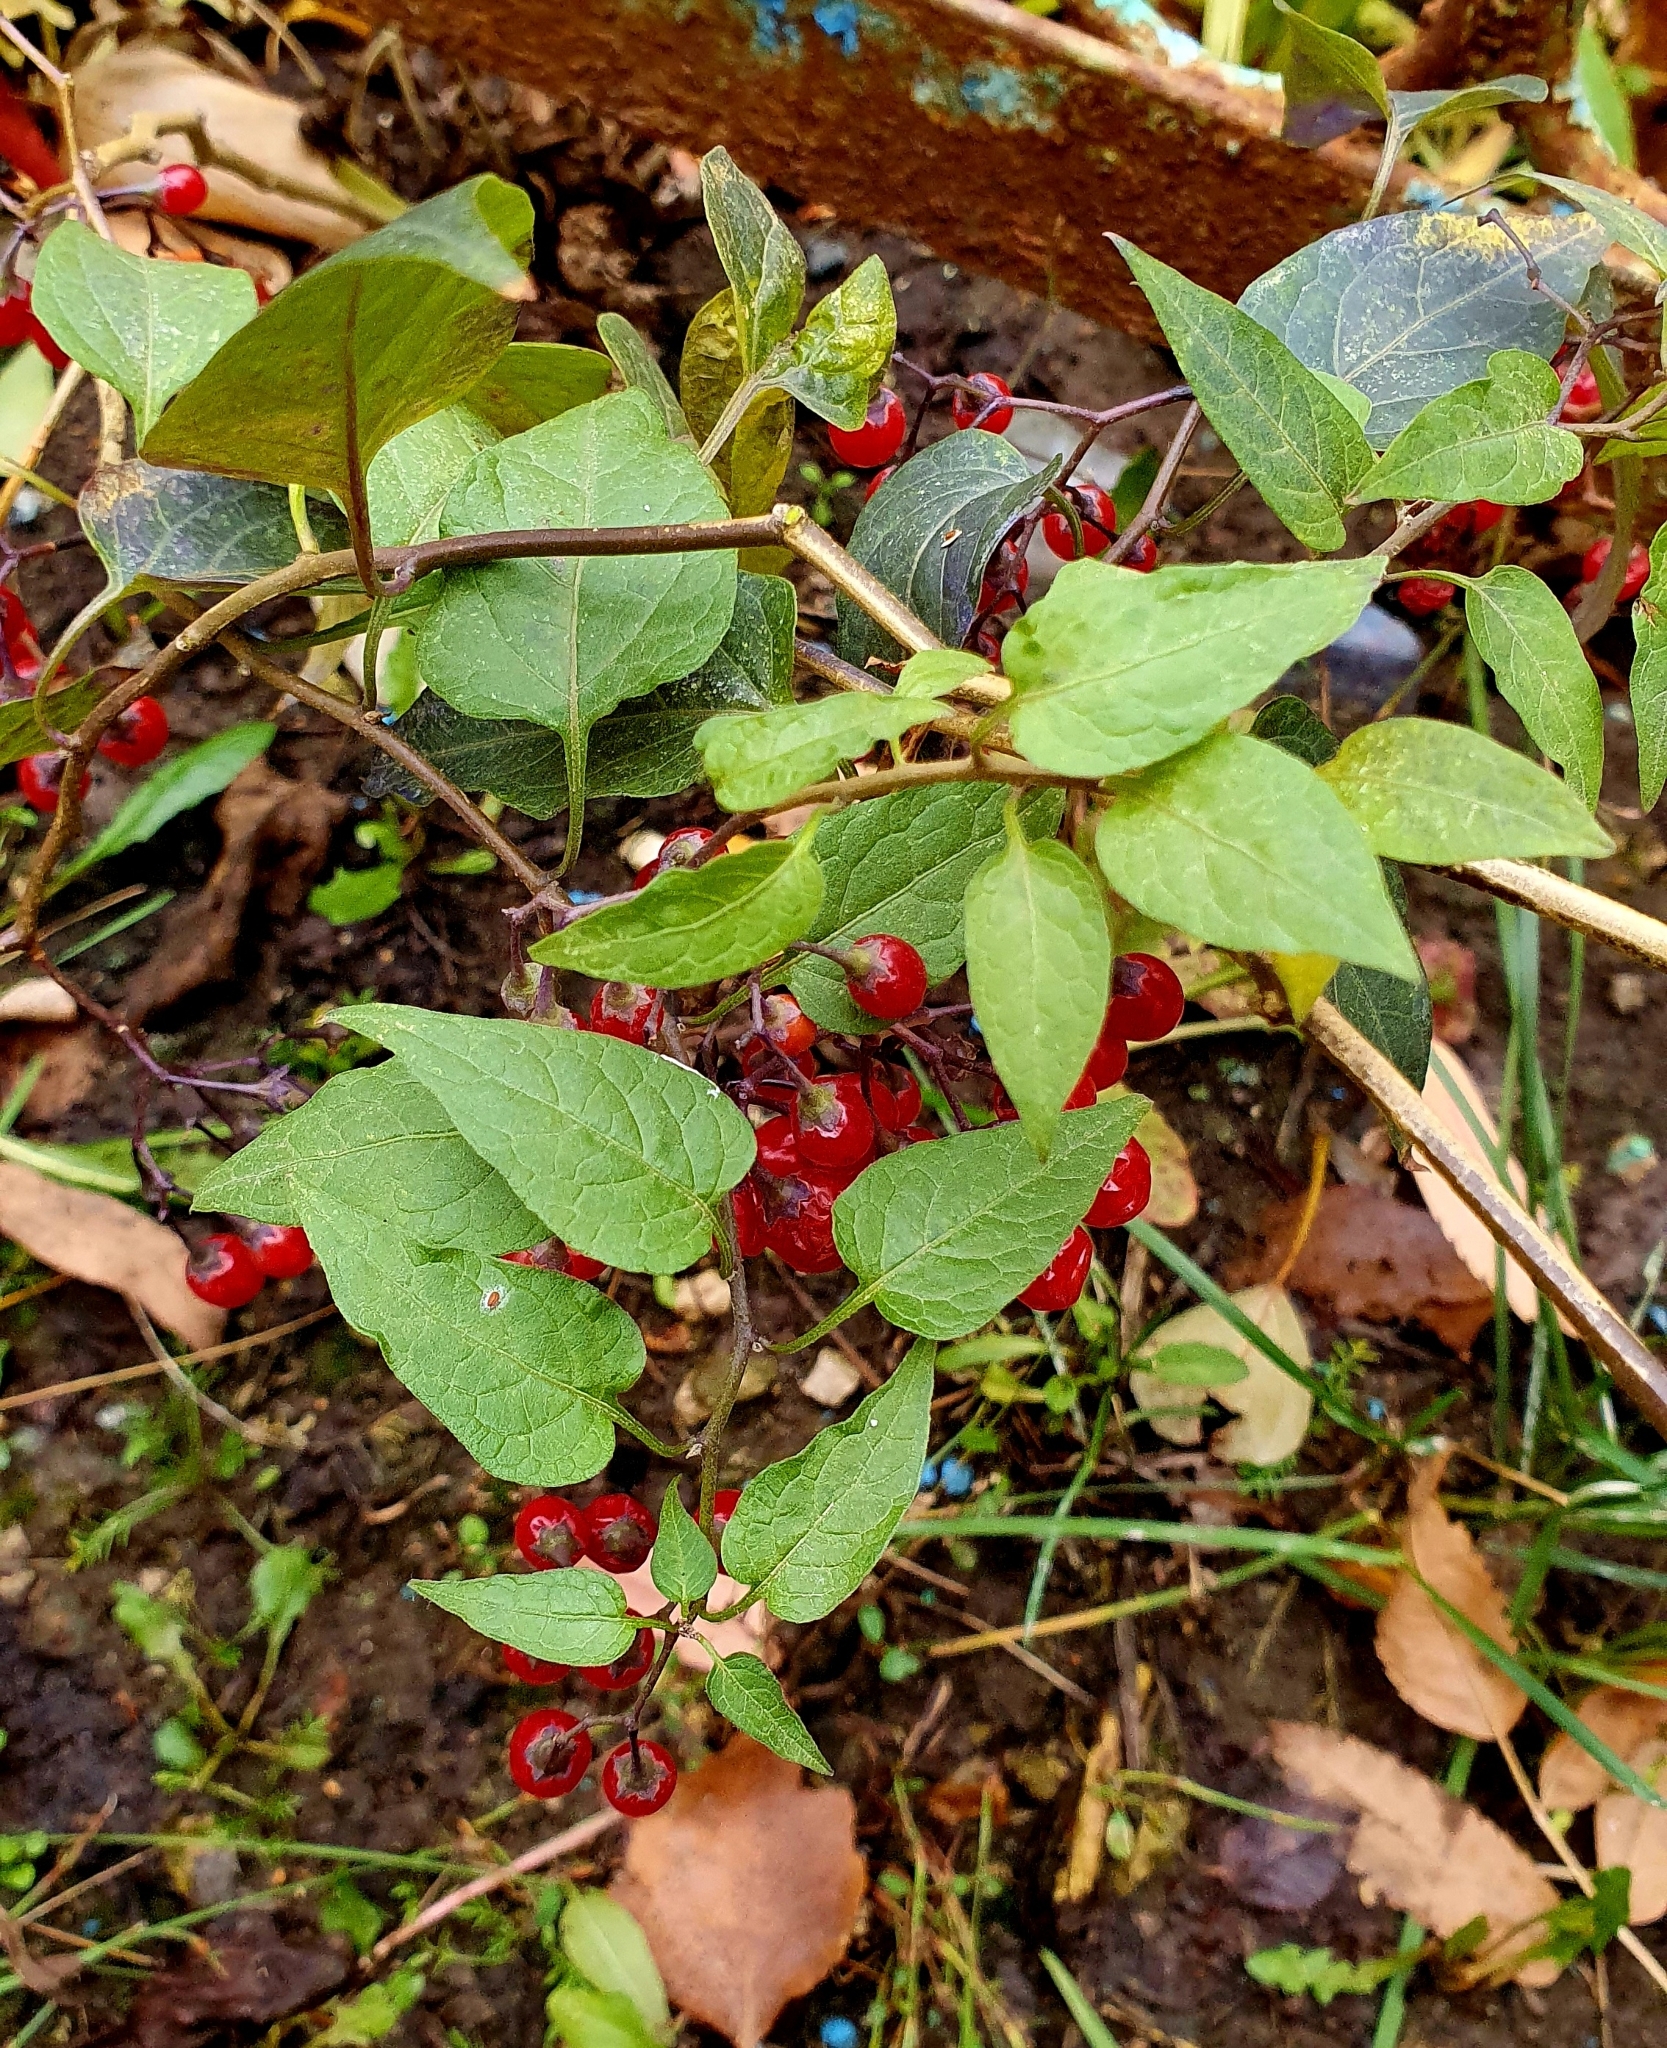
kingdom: Plantae
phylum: Tracheophyta
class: Magnoliopsida
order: Solanales
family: Solanaceae
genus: Solanum
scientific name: Solanum dulcamara
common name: Climbing nightshade
